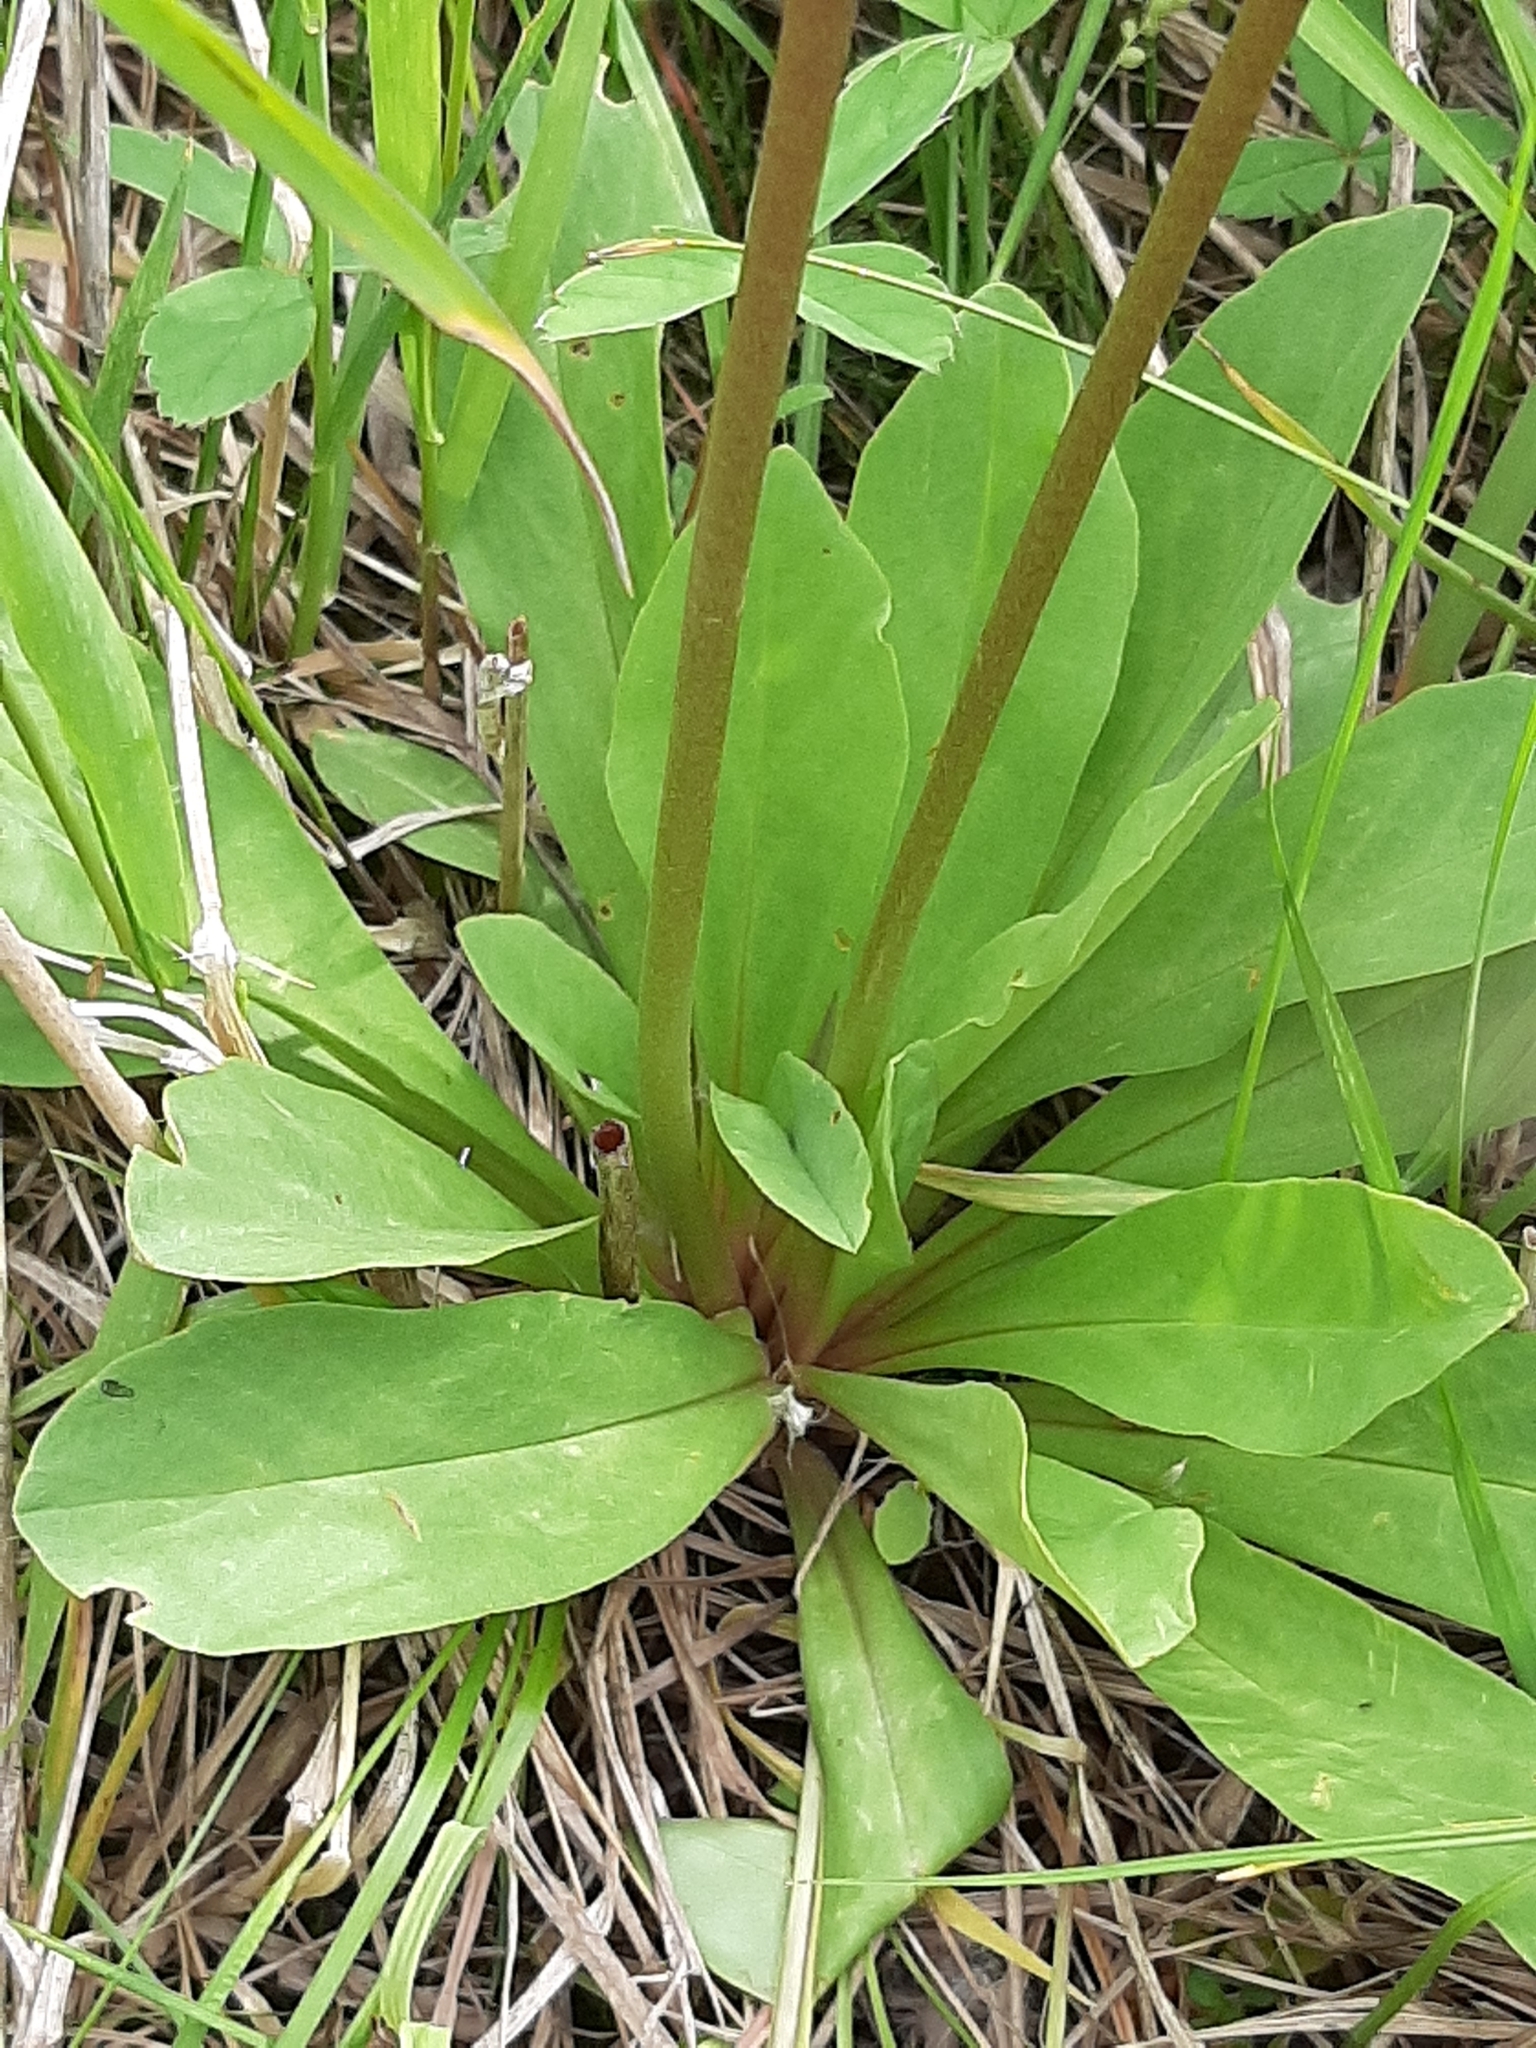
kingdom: Plantae
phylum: Tracheophyta
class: Magnoliopsida
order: Ericales
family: Primulaceae
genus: Dodecatheon
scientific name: Dodecatheon pulchellum
